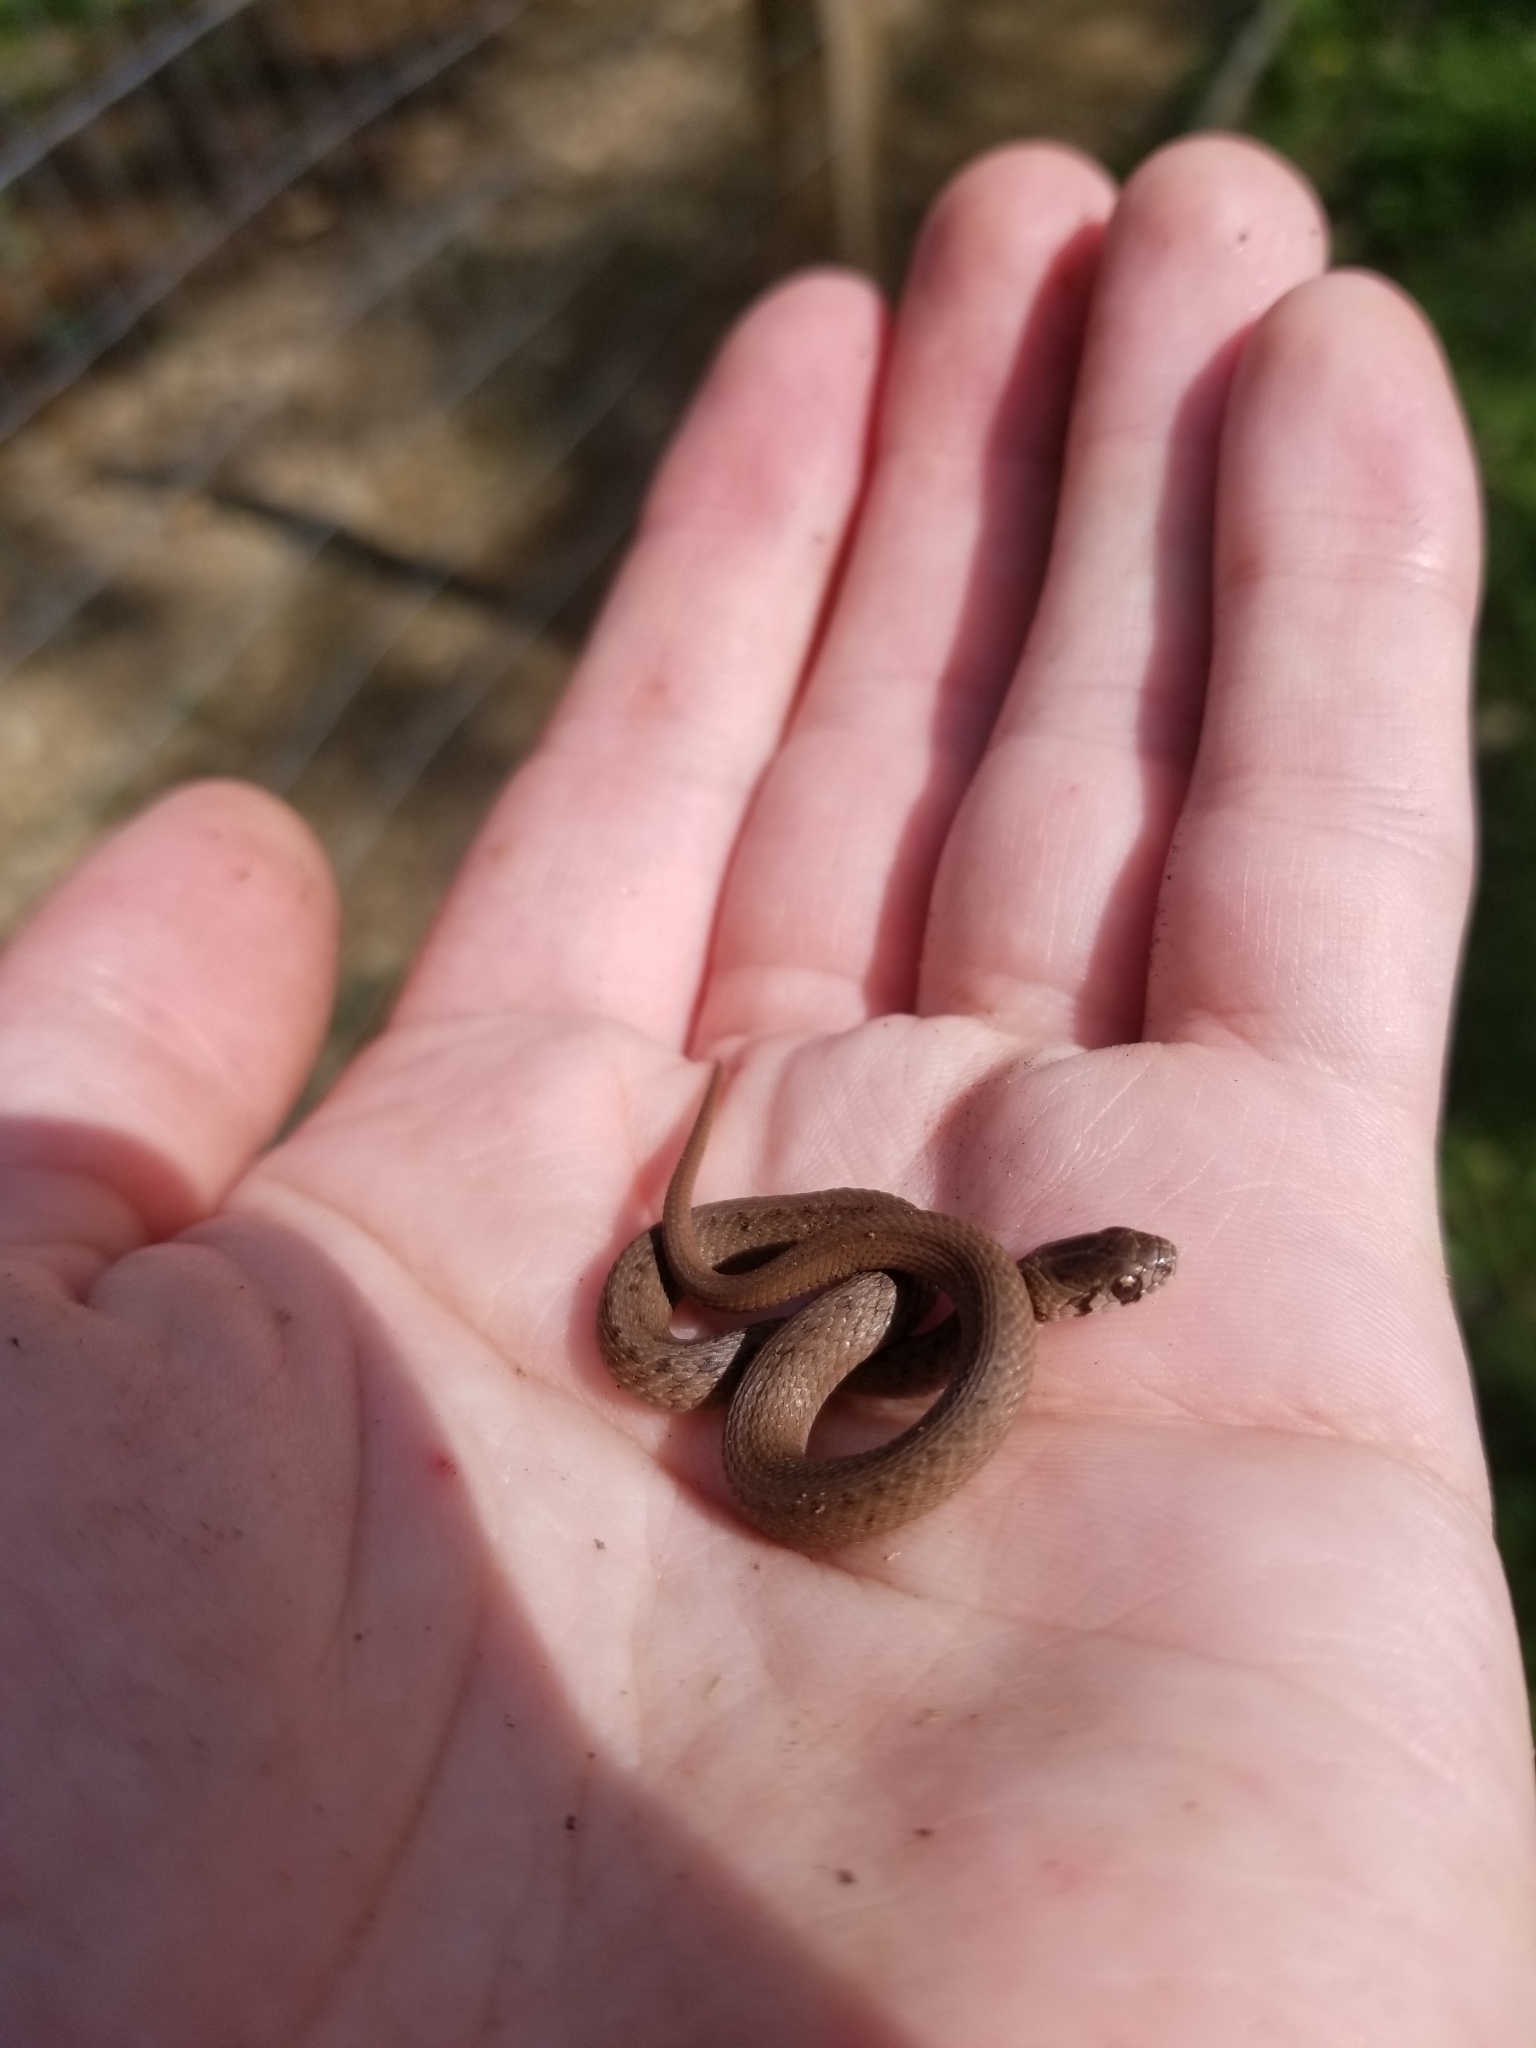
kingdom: Animalia
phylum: Chordata
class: Squamata
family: Colubridae
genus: Storeria
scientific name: Storeria dekayi
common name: (dekay’s) brown snake
